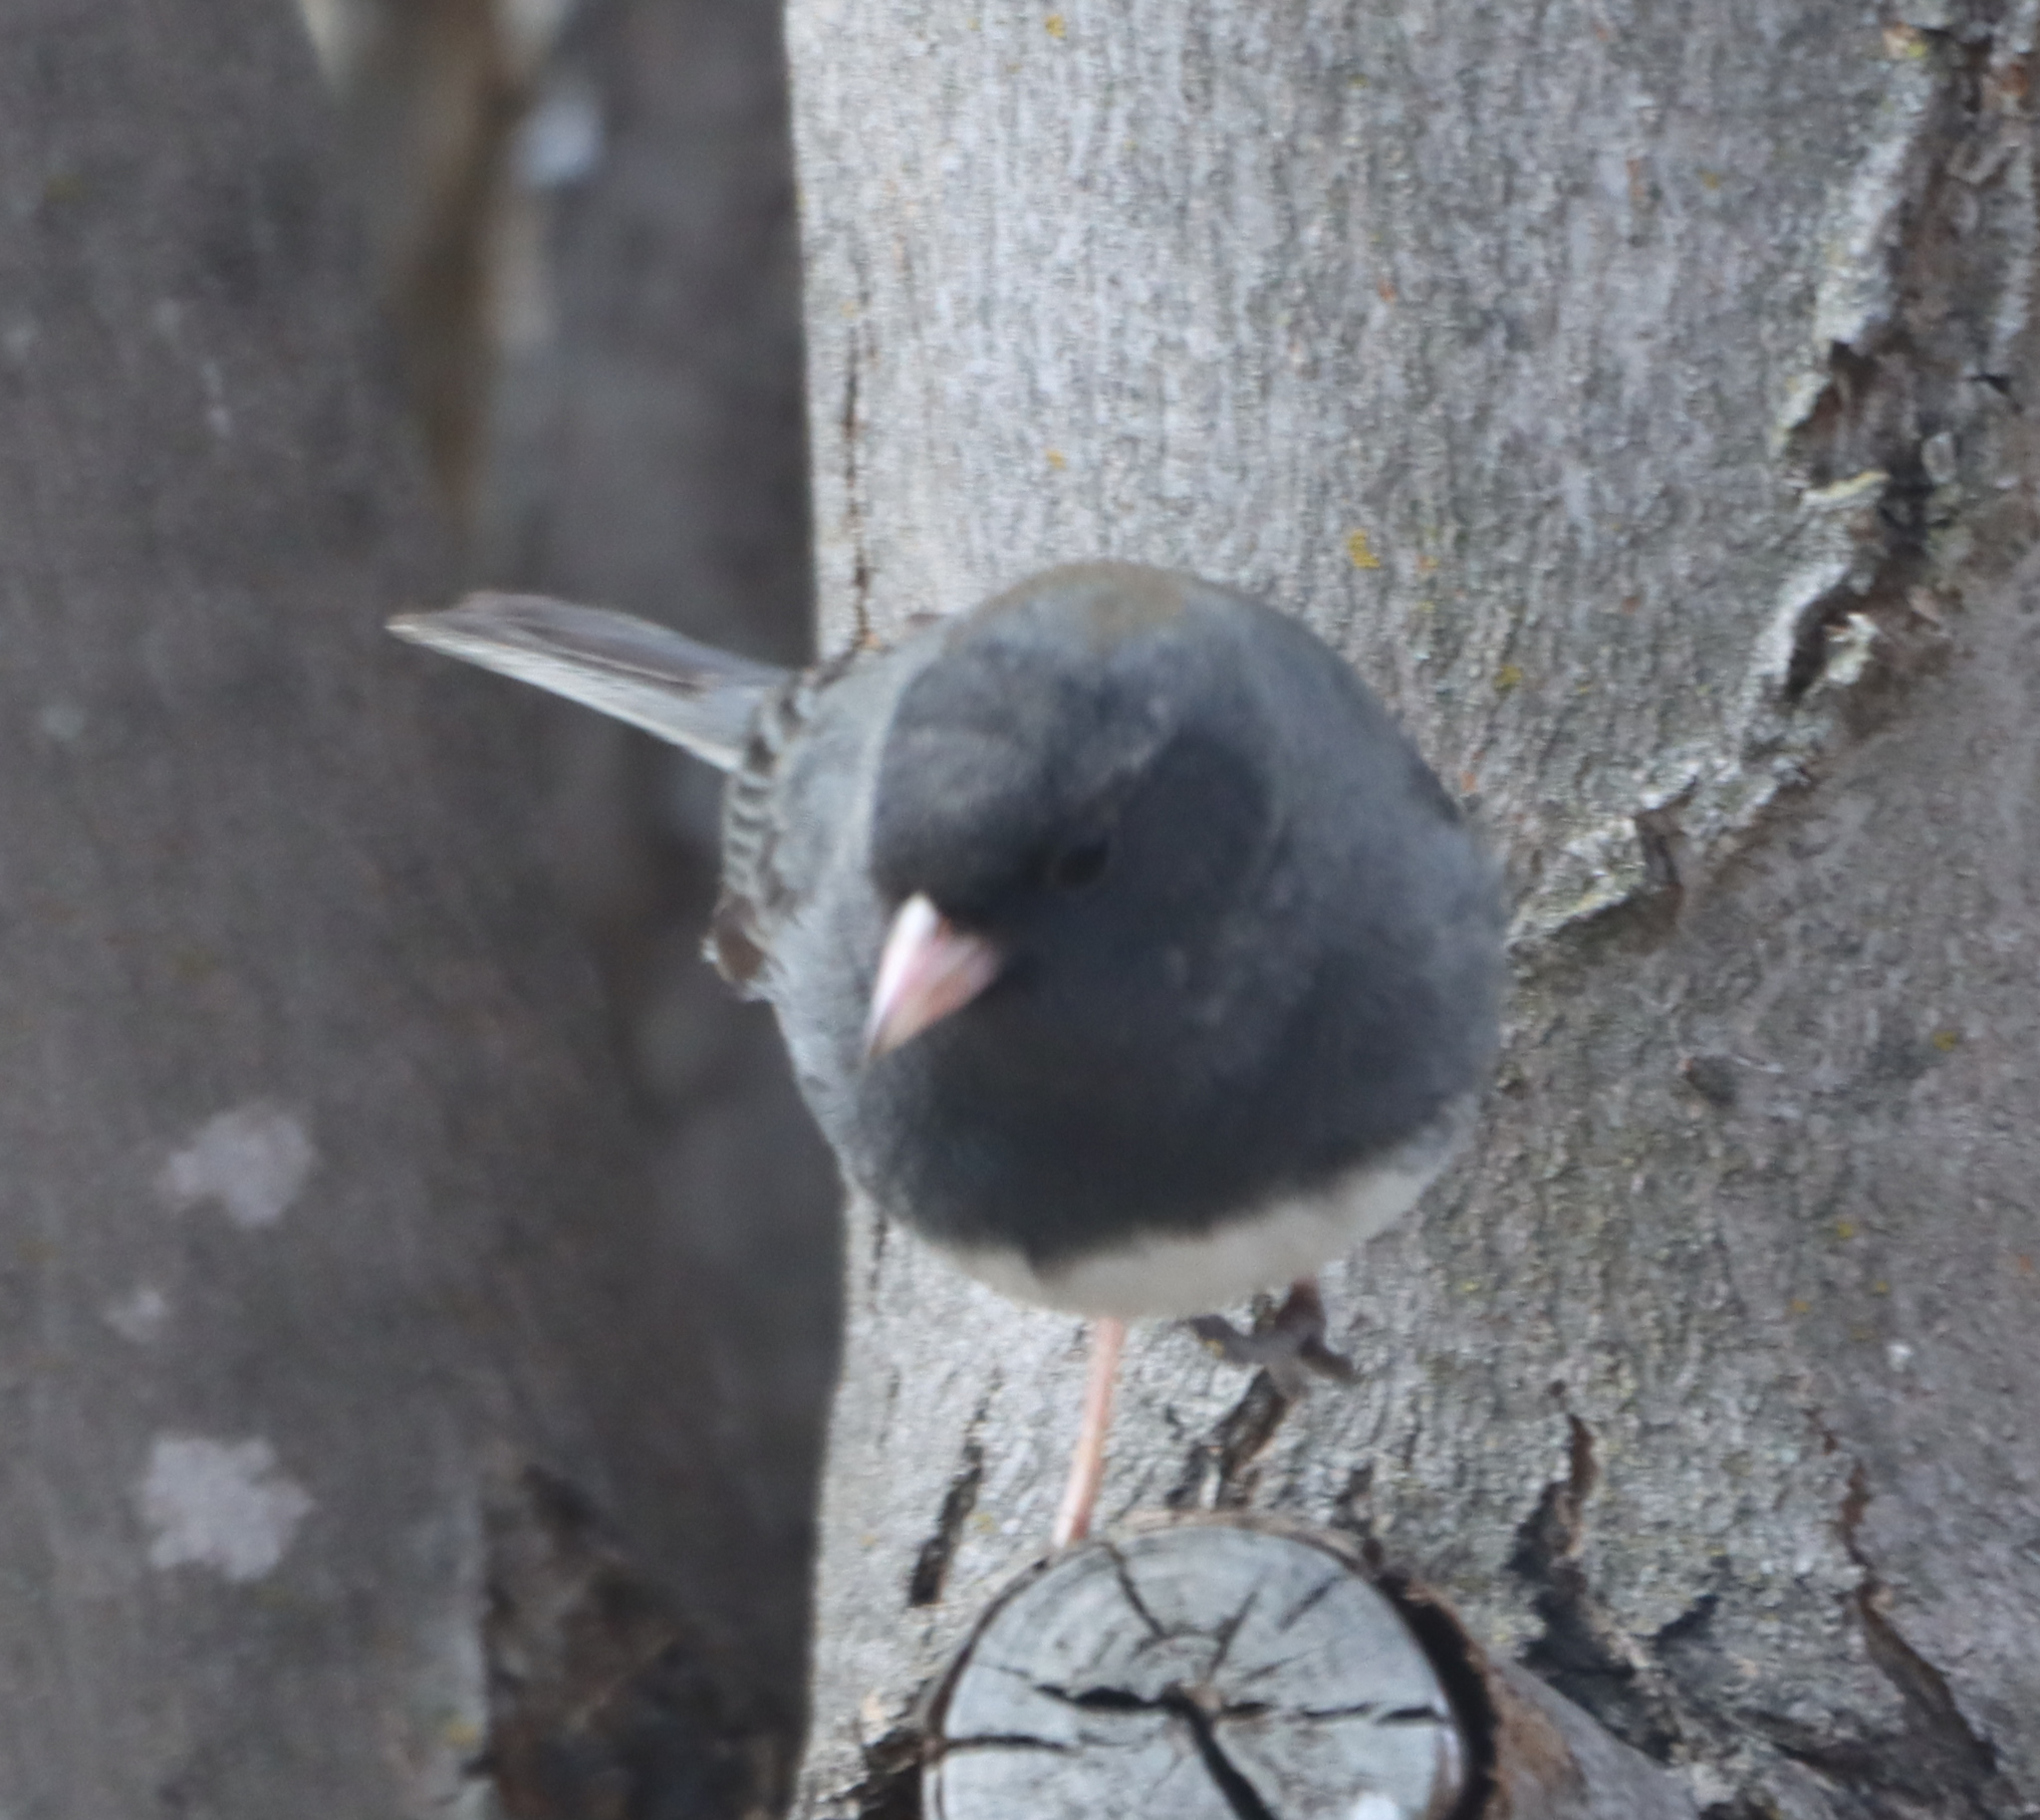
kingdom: Animalia
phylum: Chordata
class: Aves
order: Passeriformes
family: Passerellidae
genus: Junco
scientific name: Junco hyemalis
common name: Dark-eyed junco
